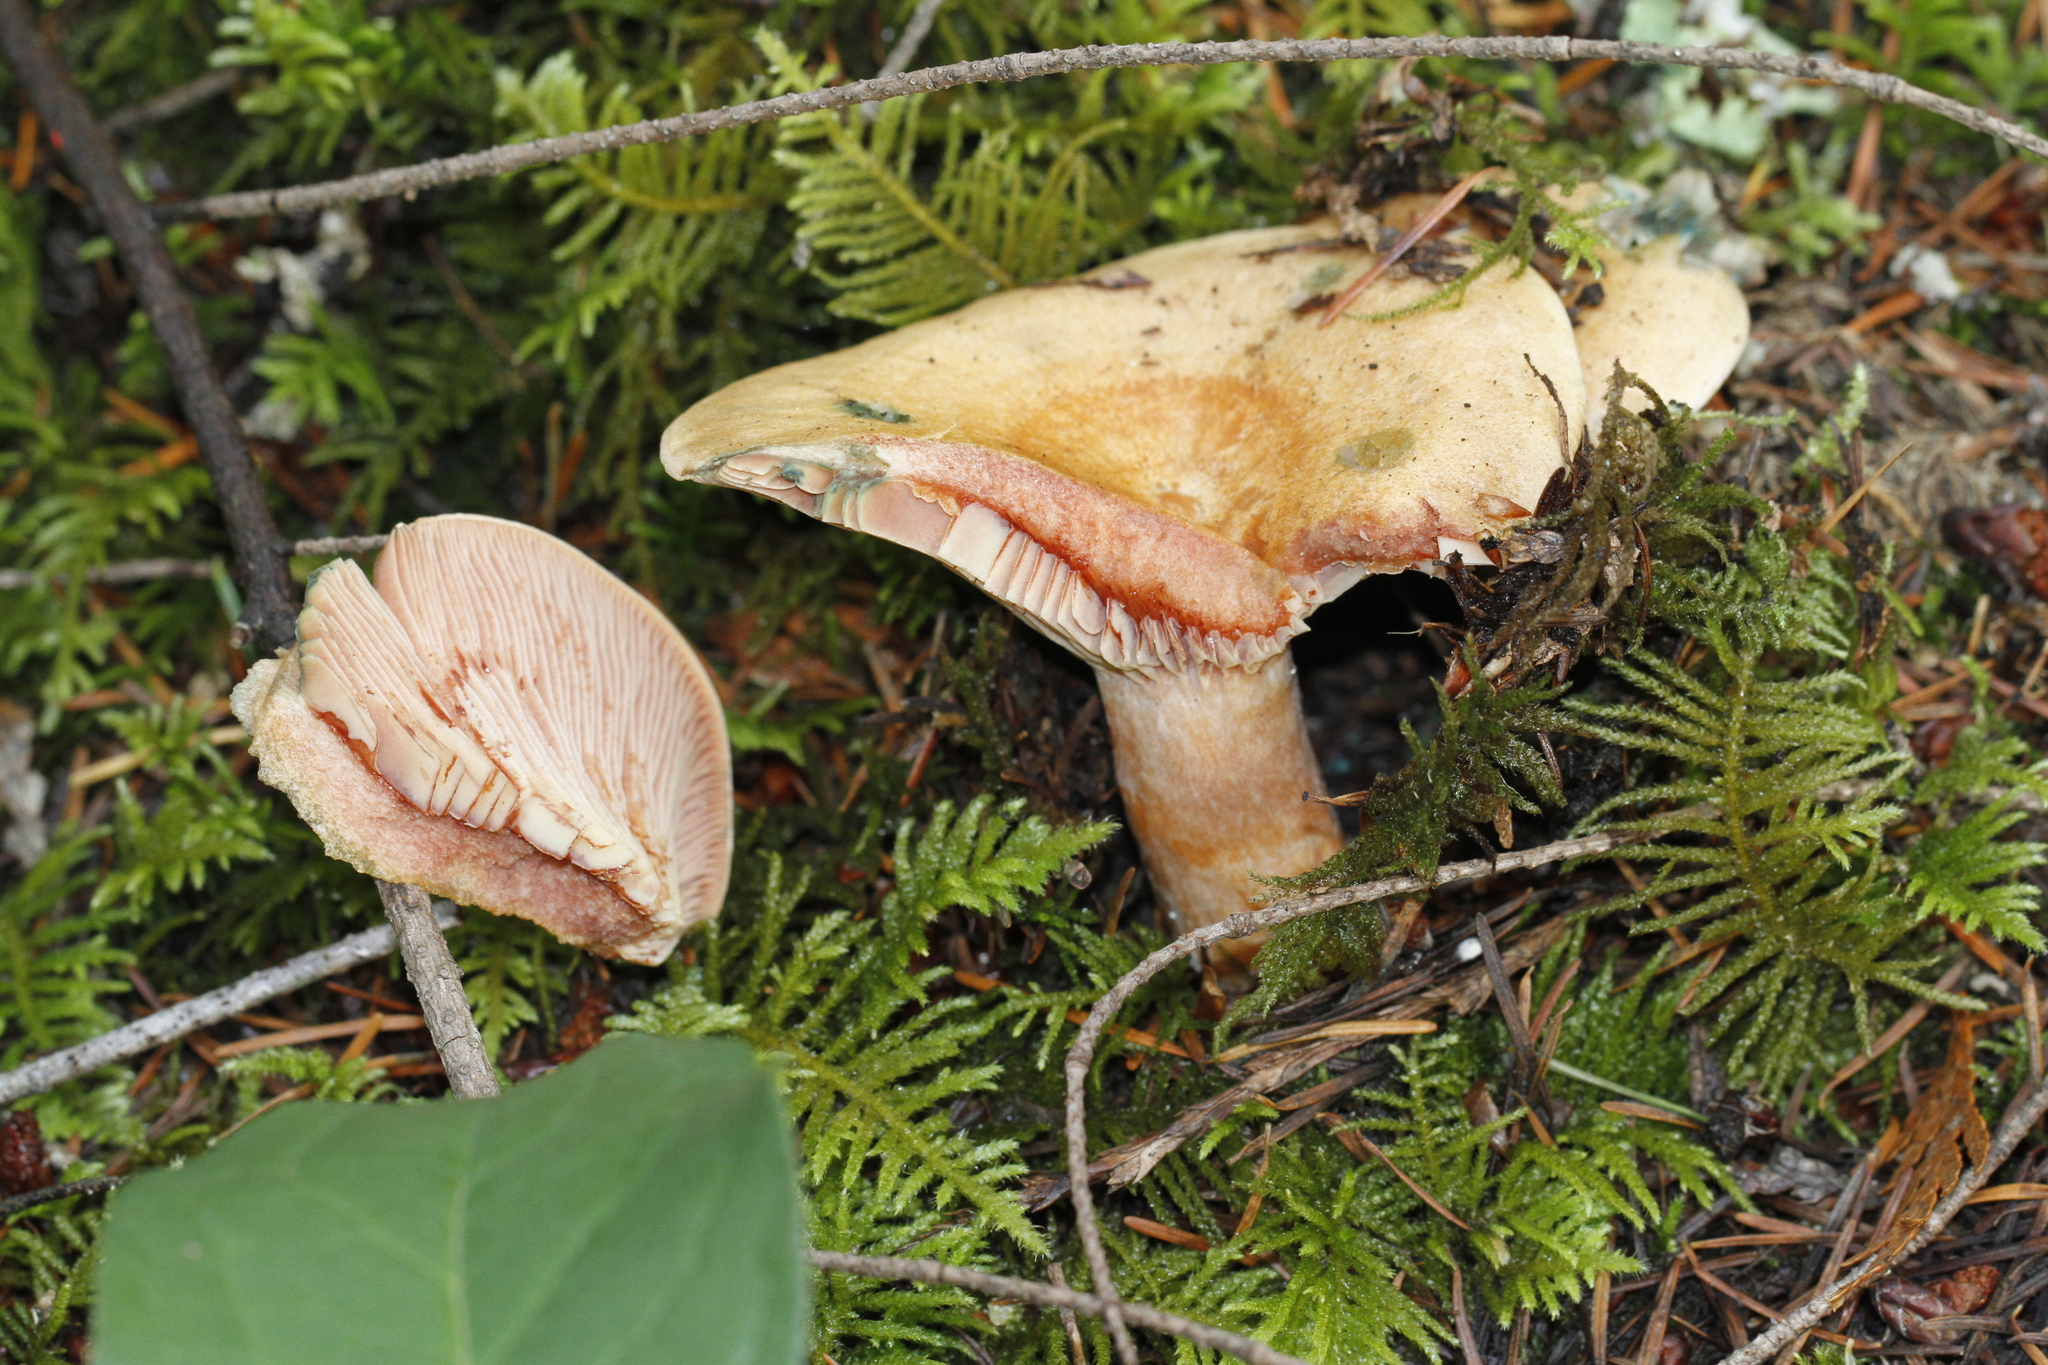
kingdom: Fungi
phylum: Basidiomycota
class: Agaricomycetes
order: Russulales
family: Russulaceae
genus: Lactarius
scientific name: Lactarius rubrilacteus
